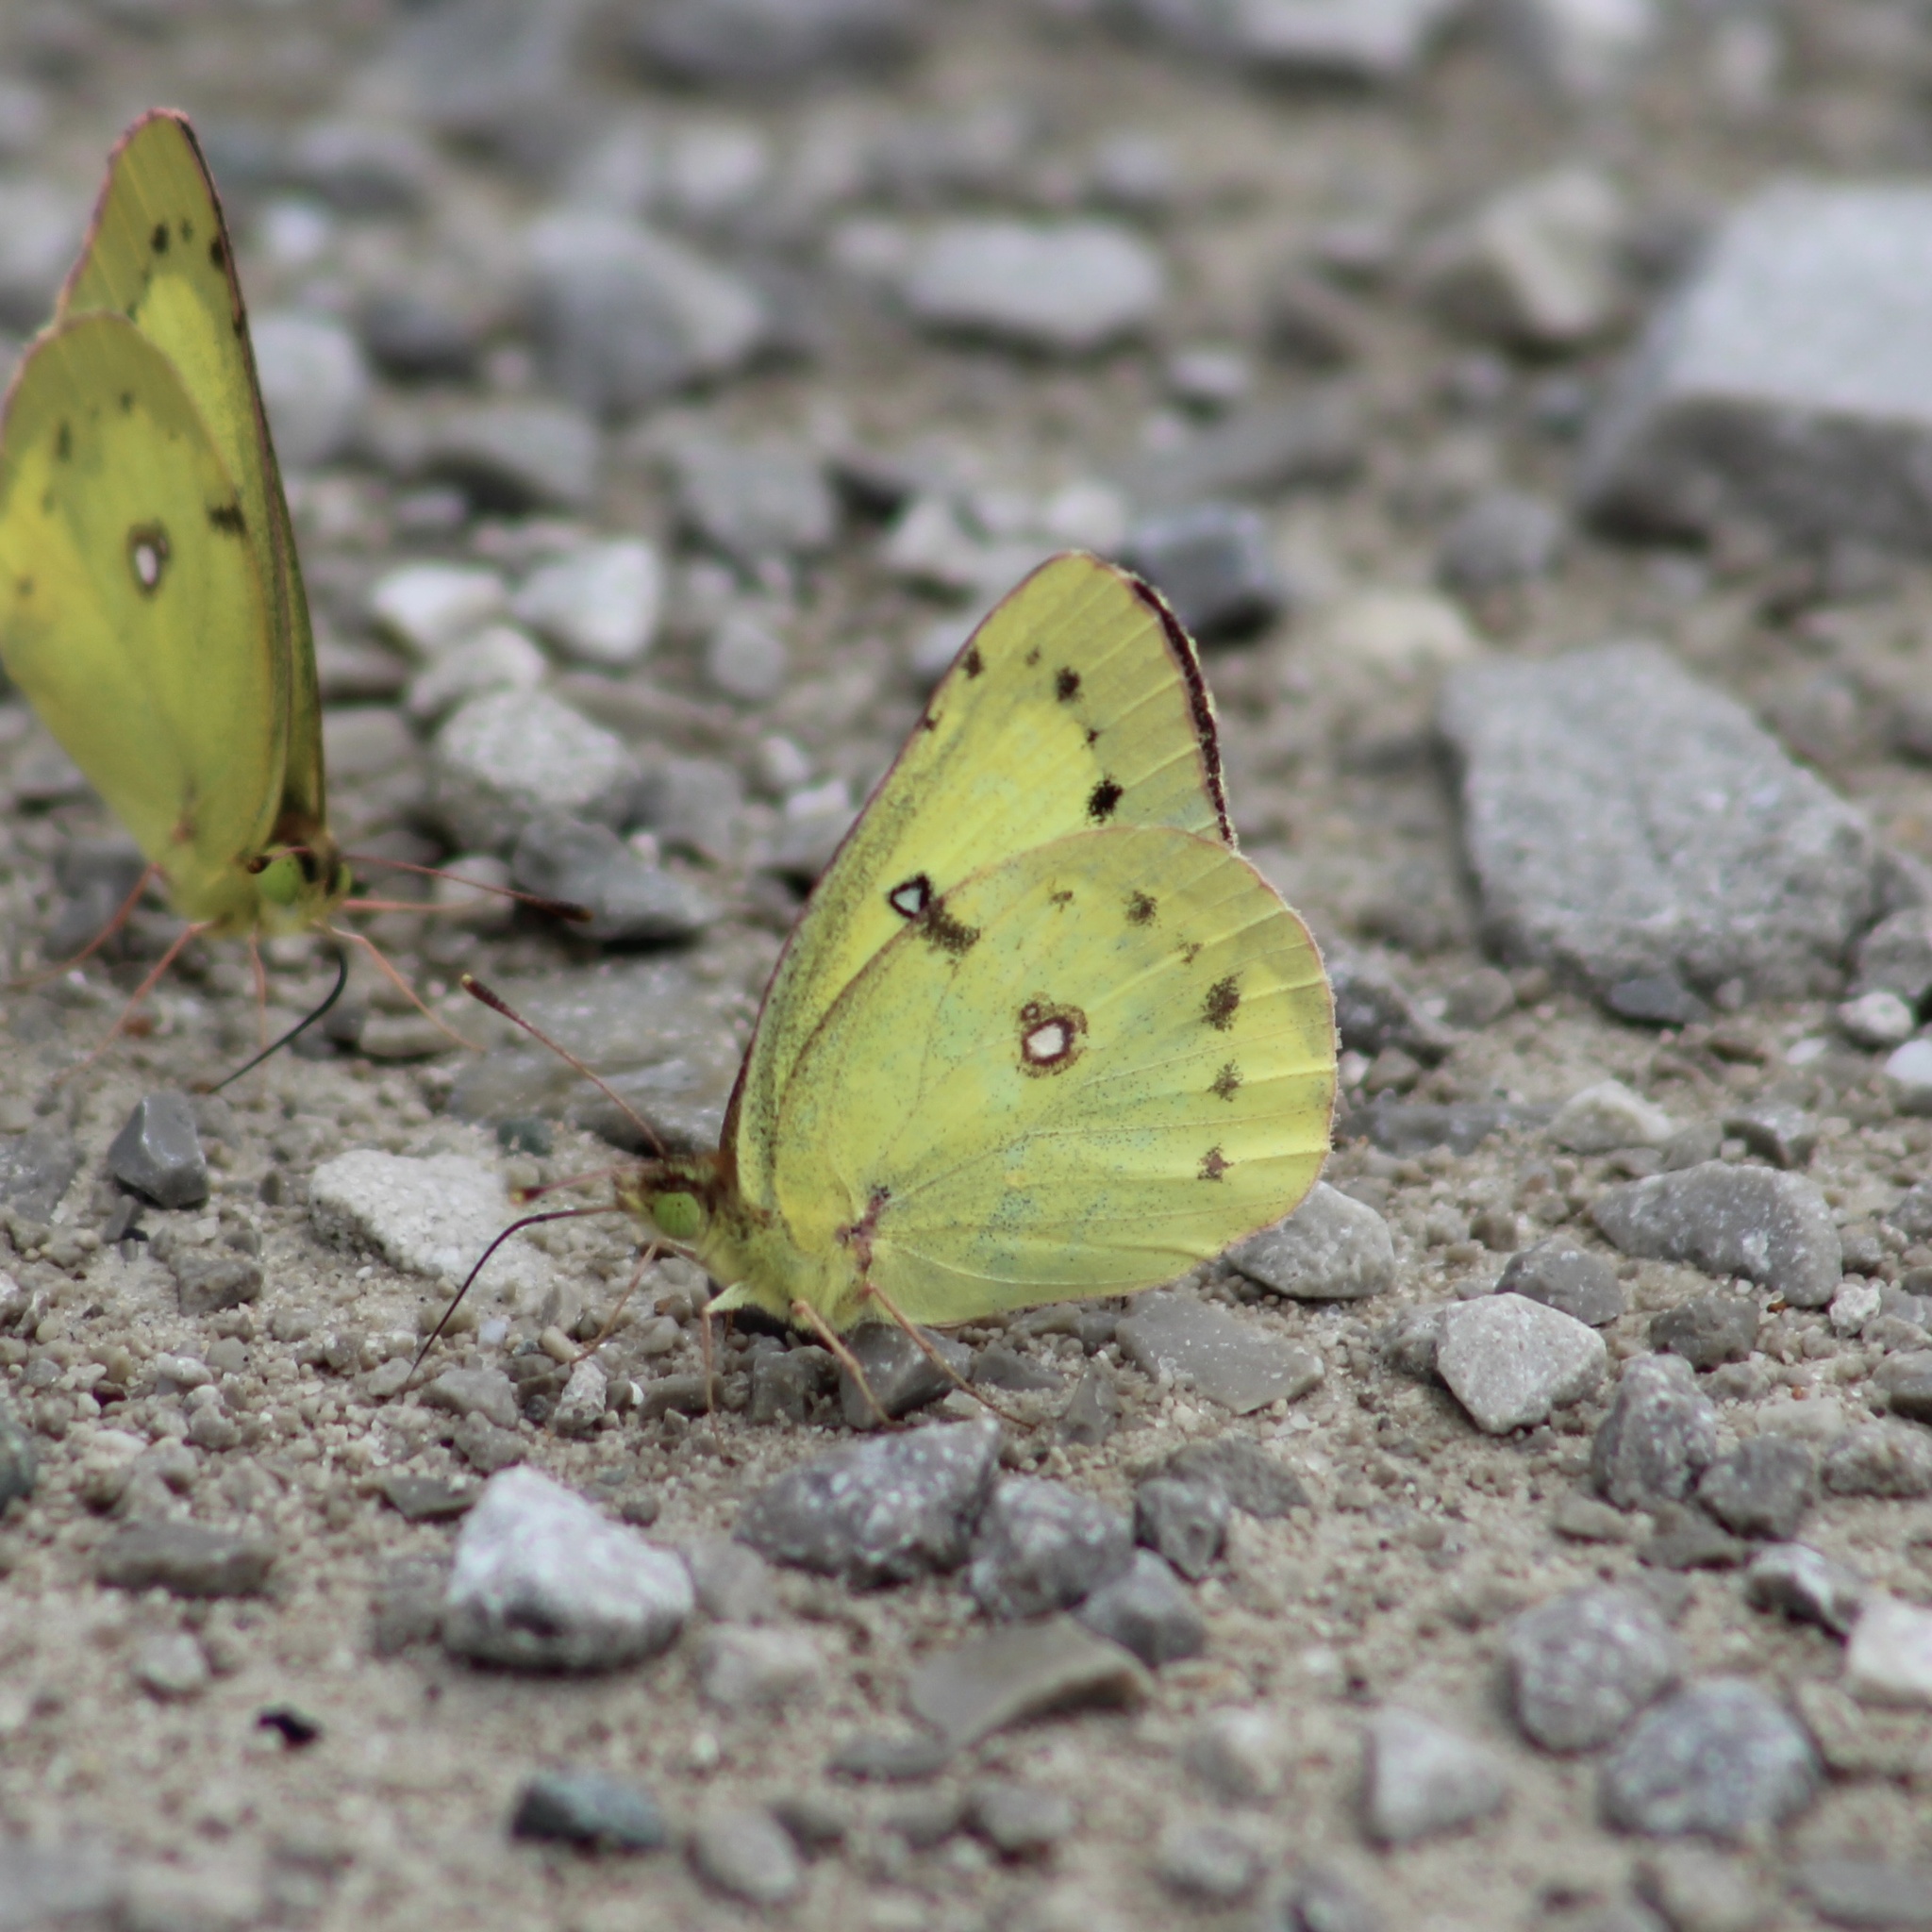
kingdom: Animalia
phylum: Arthropoda
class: Insecta
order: Lepidoptera
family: Pieridae
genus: Colias
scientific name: Colias philodice
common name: Clouded sulphur
